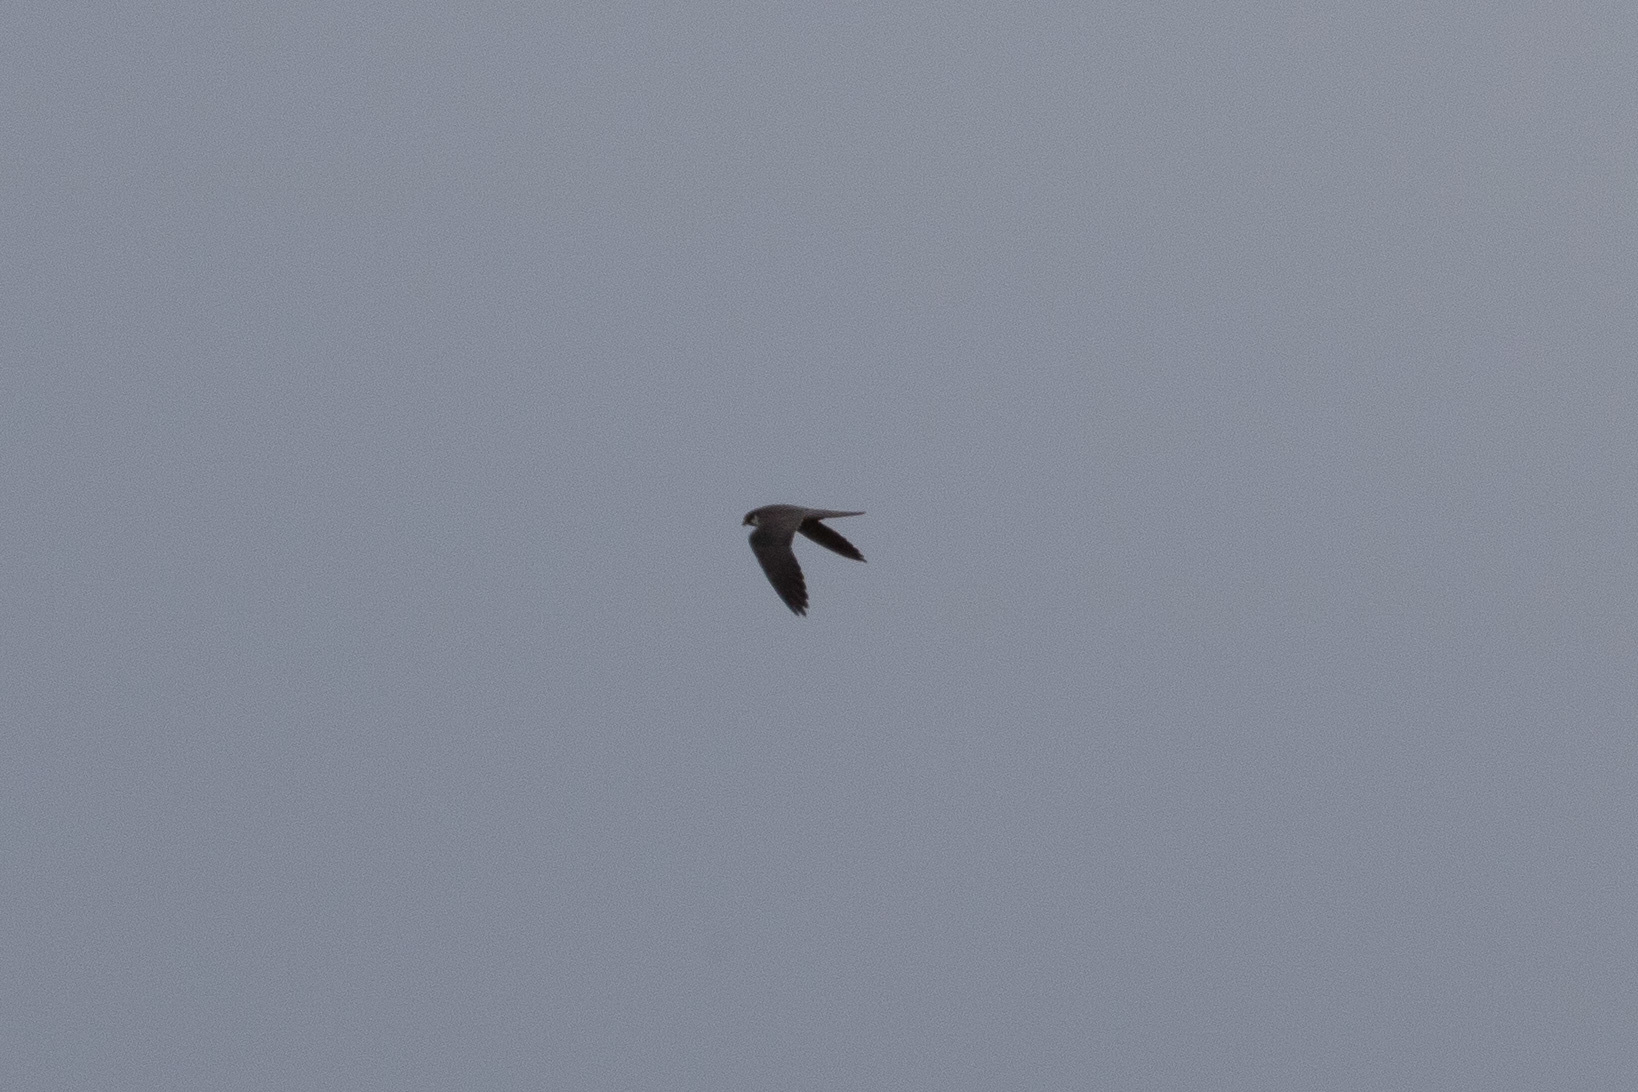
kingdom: Animalia
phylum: Chordata
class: Aves
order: Falconiformes
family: Falconidae
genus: Falco
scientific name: Falco subbuteo
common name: Eurasian hobby
